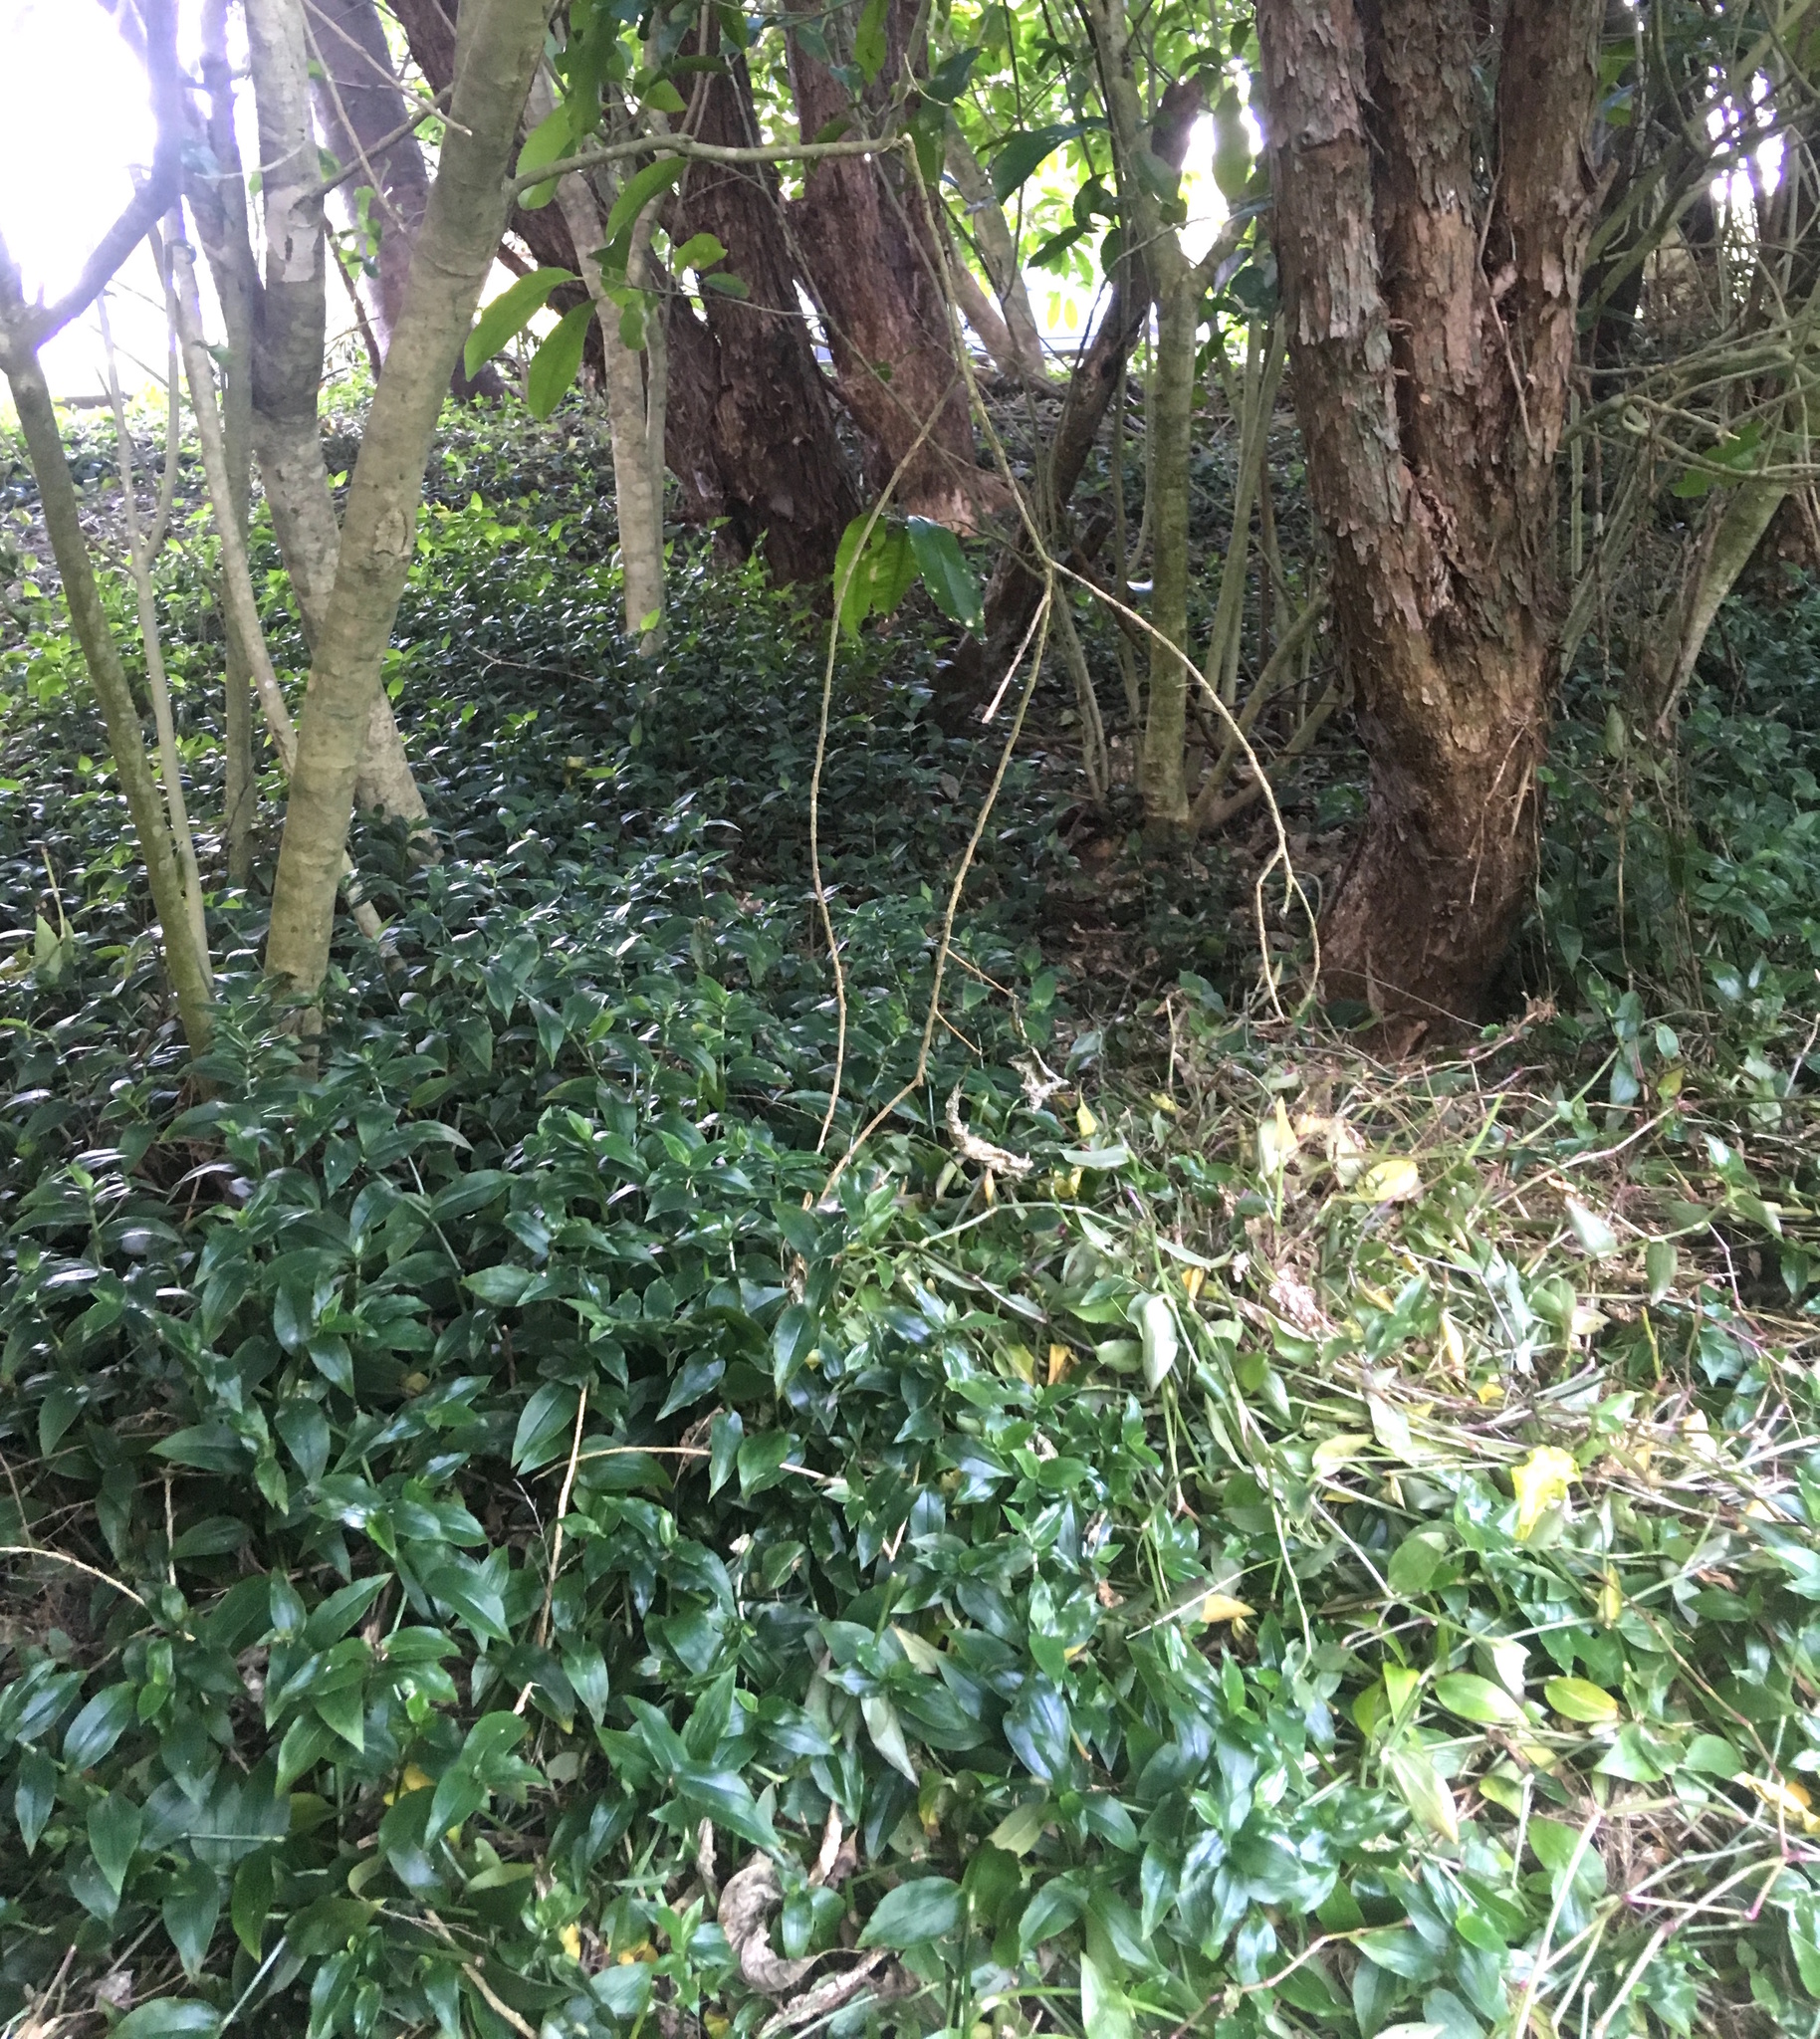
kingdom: Plantae
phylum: Tracheophyta
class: Liliopsida
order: Commelinales
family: Commelinaceae
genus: Tradescantia
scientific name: Tradescantia fluminensis
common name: Wandering-jew
